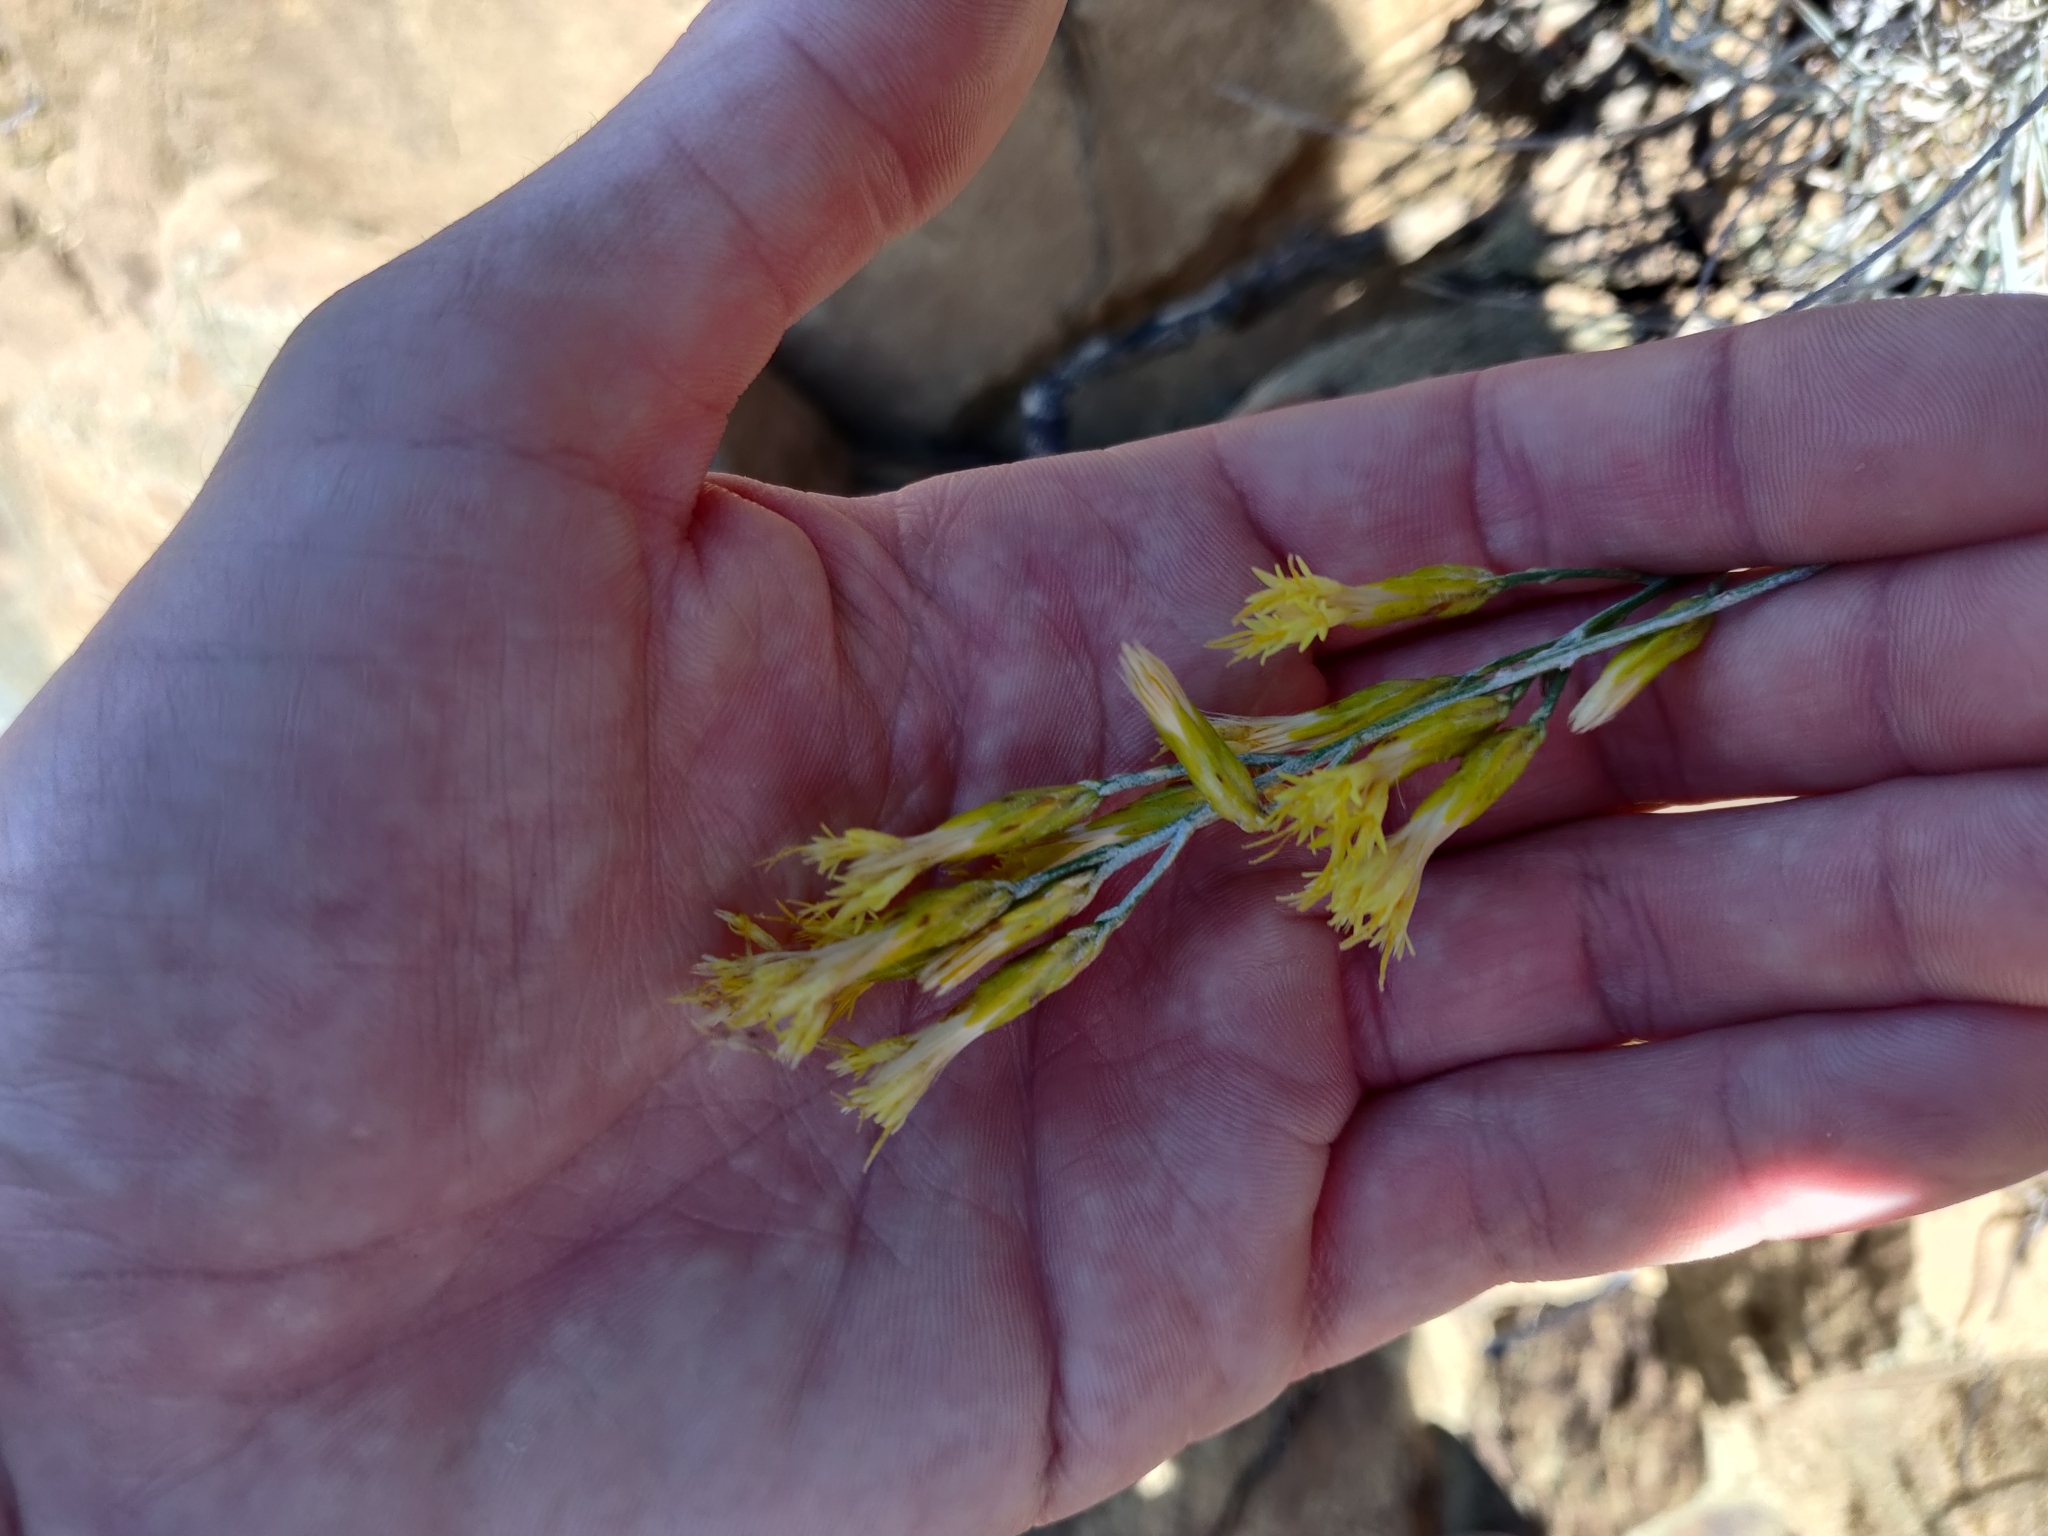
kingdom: Plantae
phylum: Tracheophyta
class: Magnoliopsida
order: Asterales
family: Asteraceae
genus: Ericameria
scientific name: Ericameria nauseosa
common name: Rubber rabbitbrush
